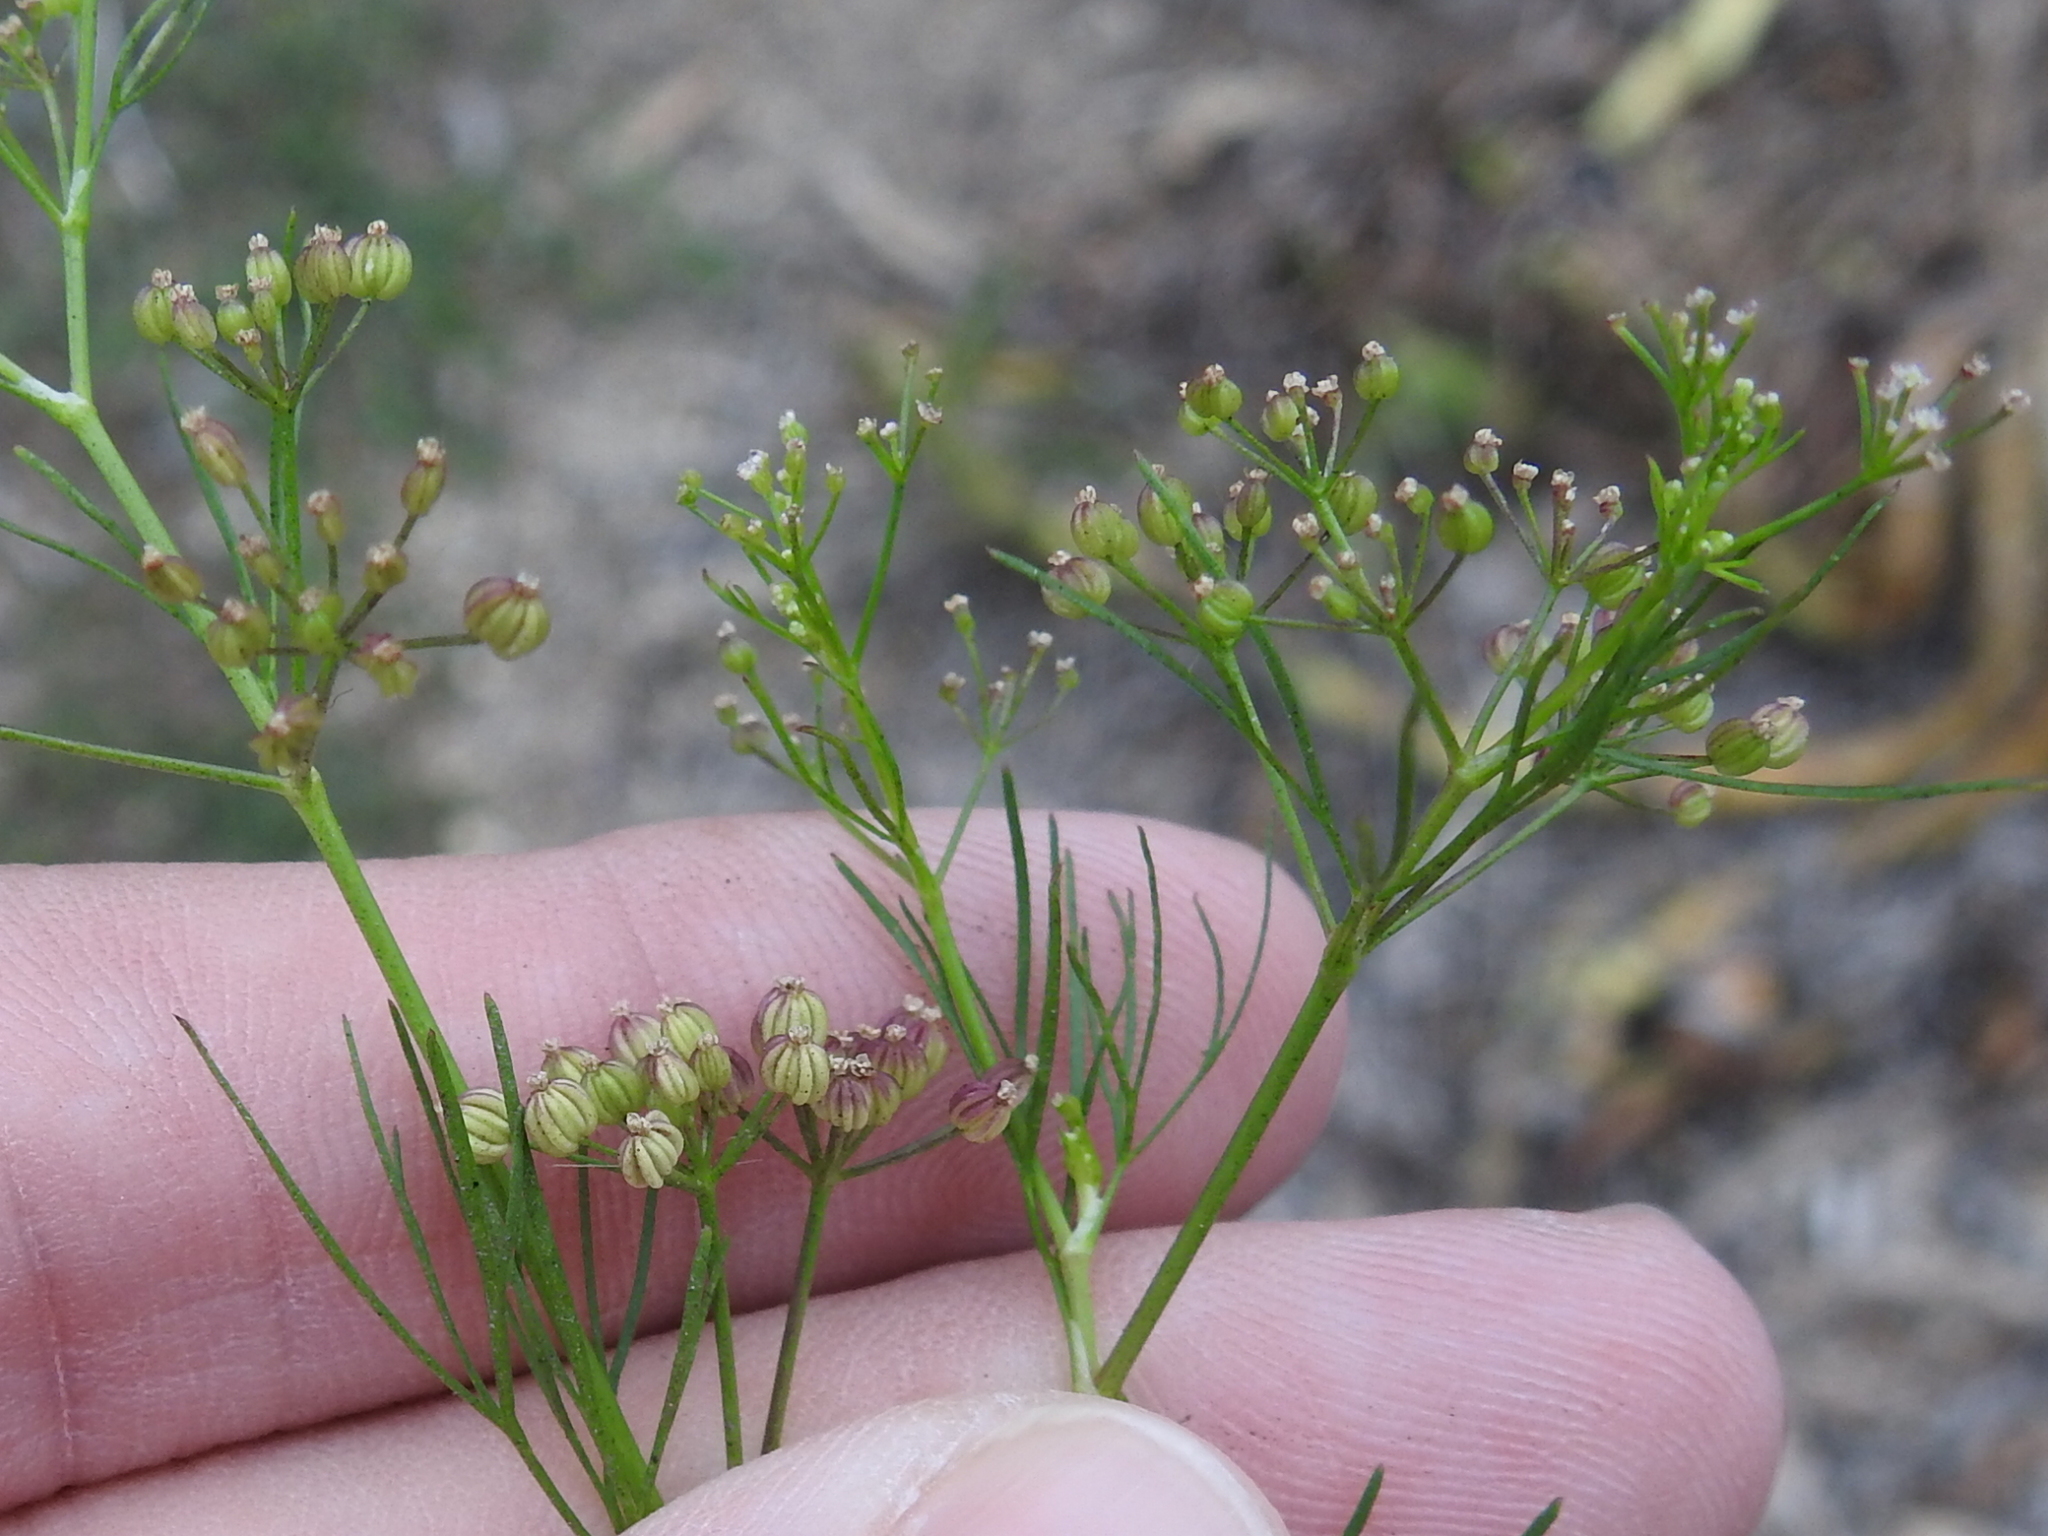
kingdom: Plantae
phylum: Tracheophyta
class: Magnoliopsida
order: Apiales
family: Apiaceae
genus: Cyclospermum
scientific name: Cyclospermum leptophyllum
